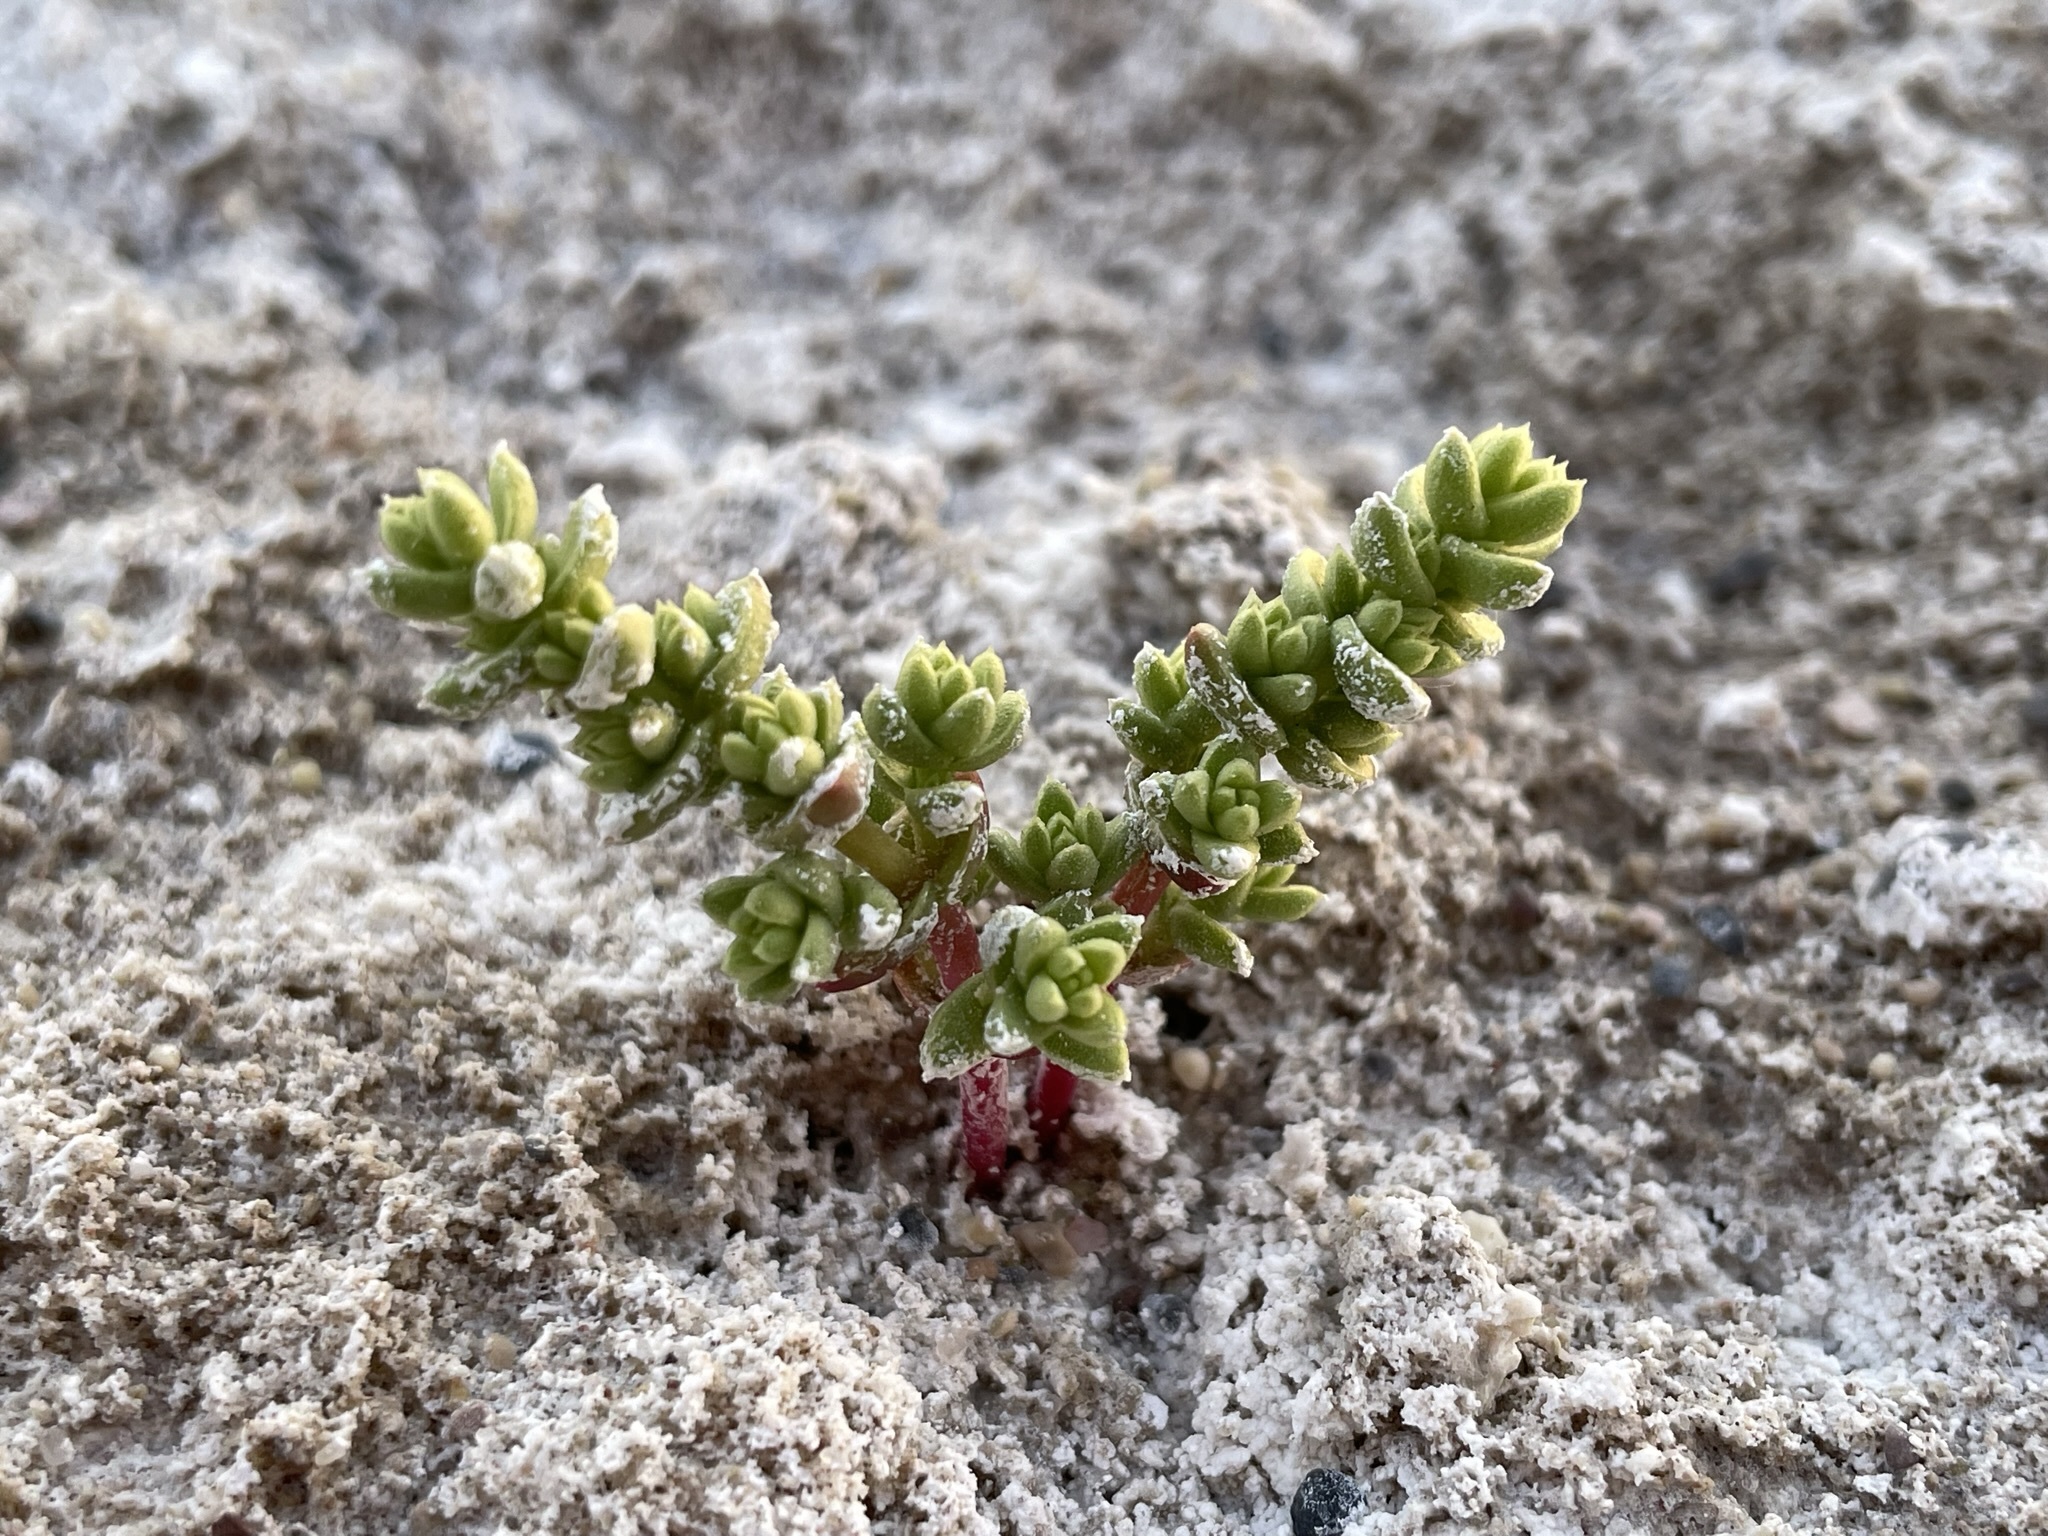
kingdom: Plantae
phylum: Tracheophyta
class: Magnoliopsida
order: Caryophyllales
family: Amaranthaceae
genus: Nitrophila
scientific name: Nitrophila mohavensis
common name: Amargosa niterwort
